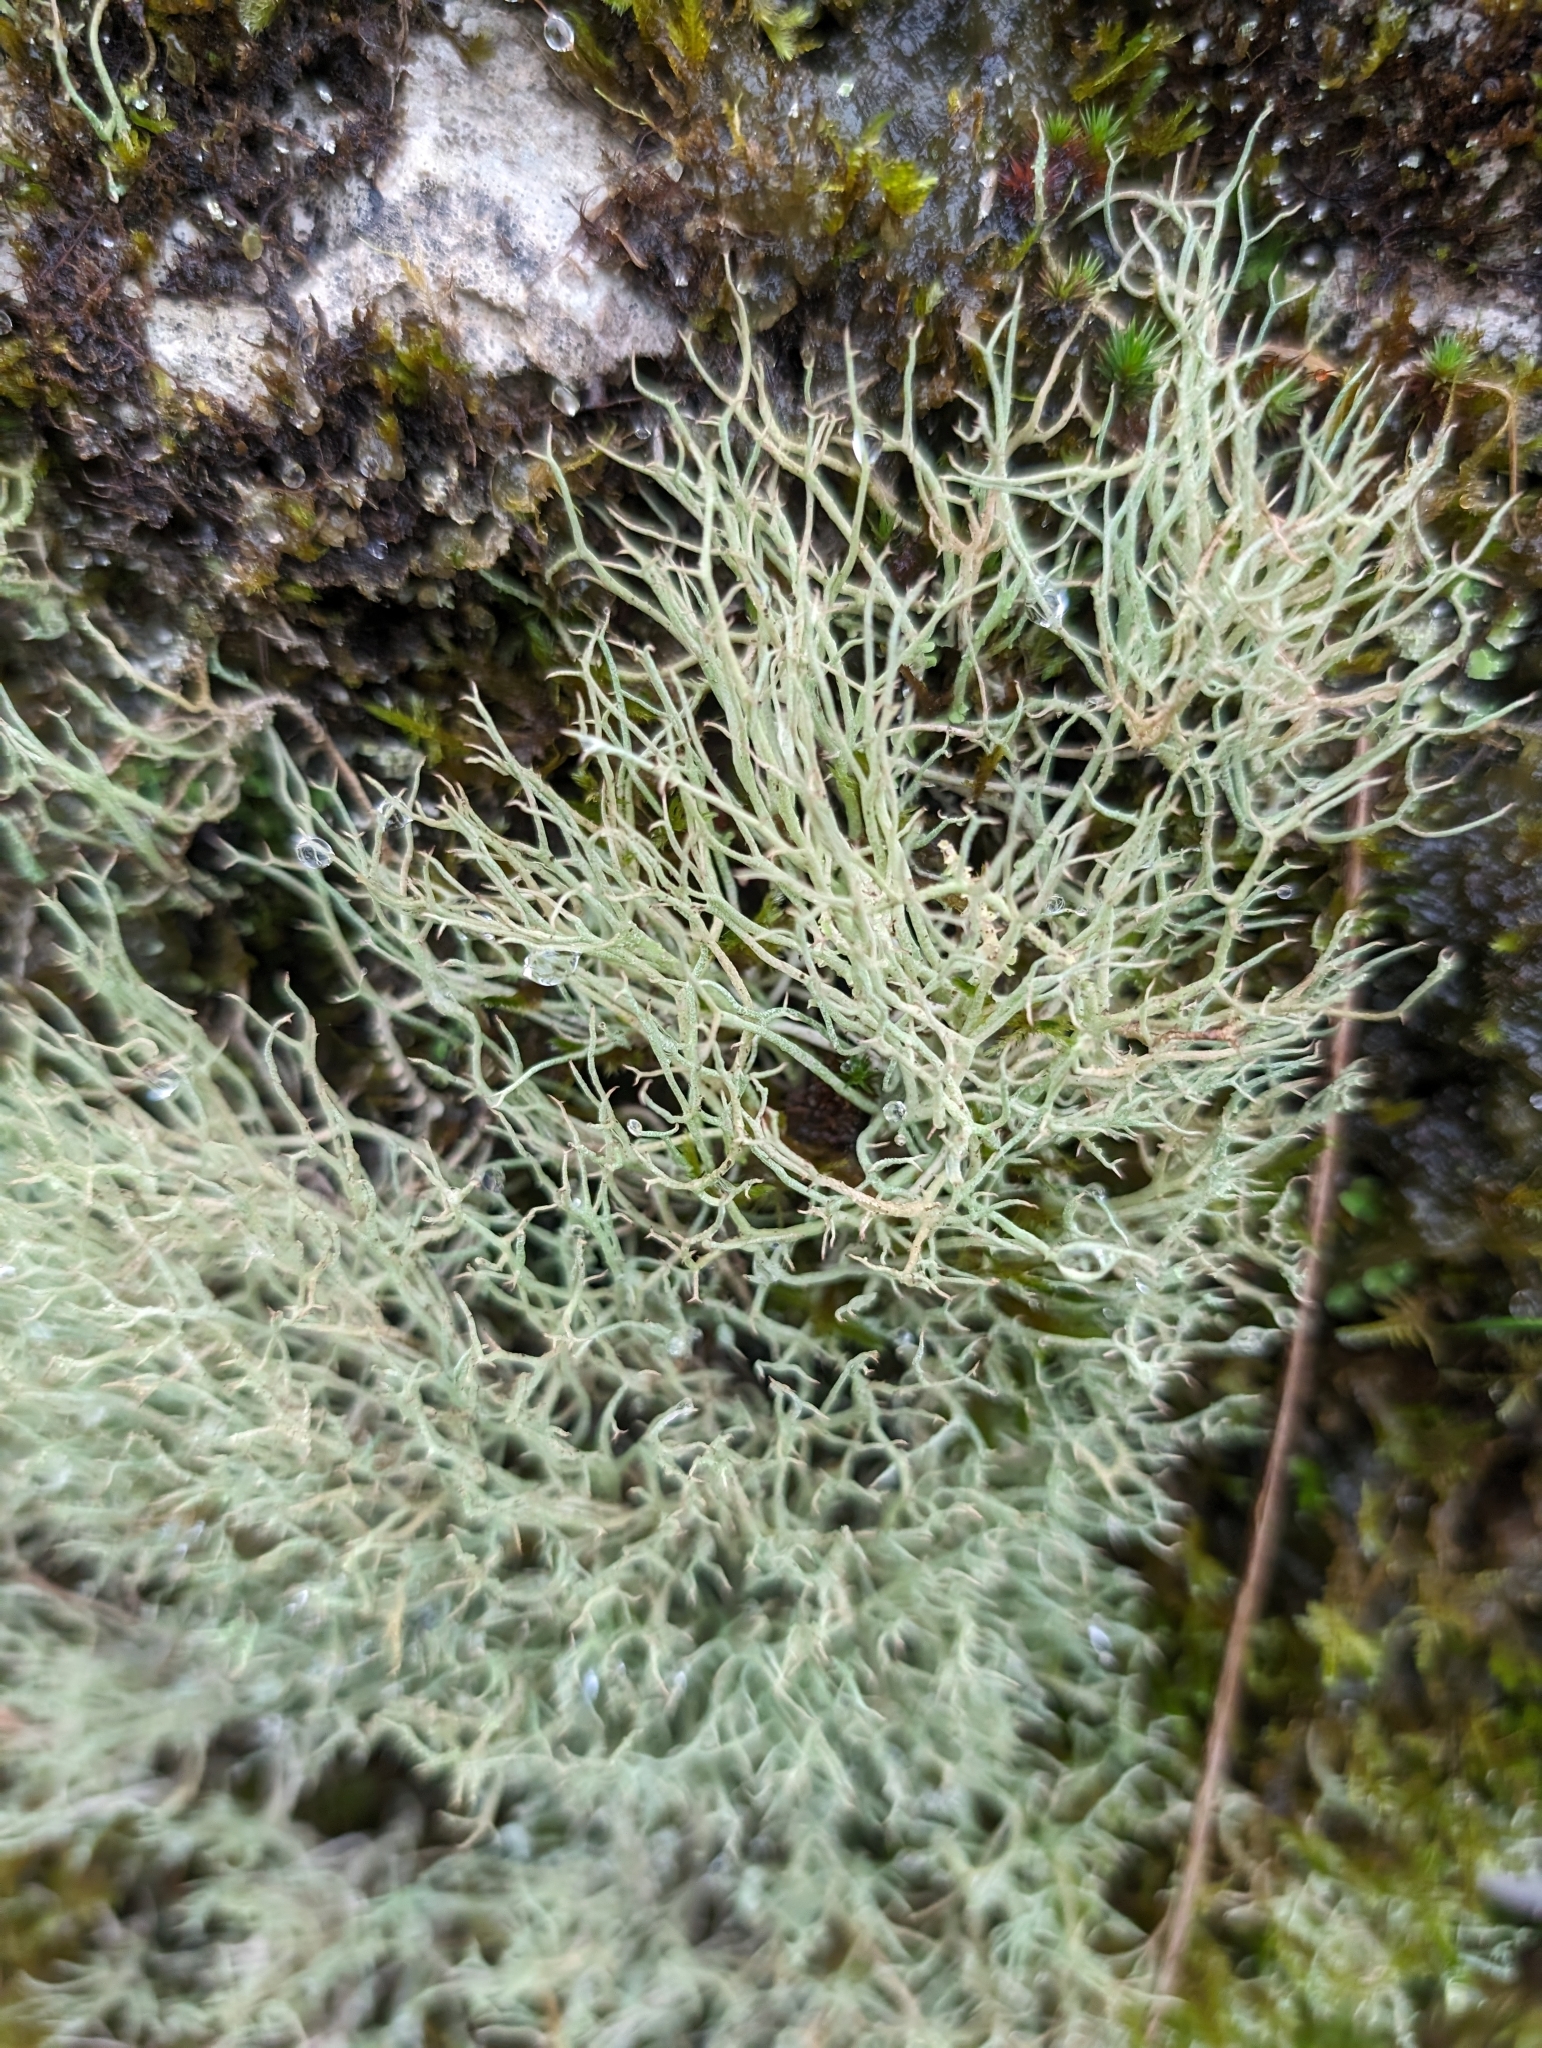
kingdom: Fungi
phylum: Ascomycota
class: Lecanoromycetes
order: Lecanorales
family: Cladoniaceae
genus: Cladonia
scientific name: Cladonia furcata
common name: Many-forked cladonia
